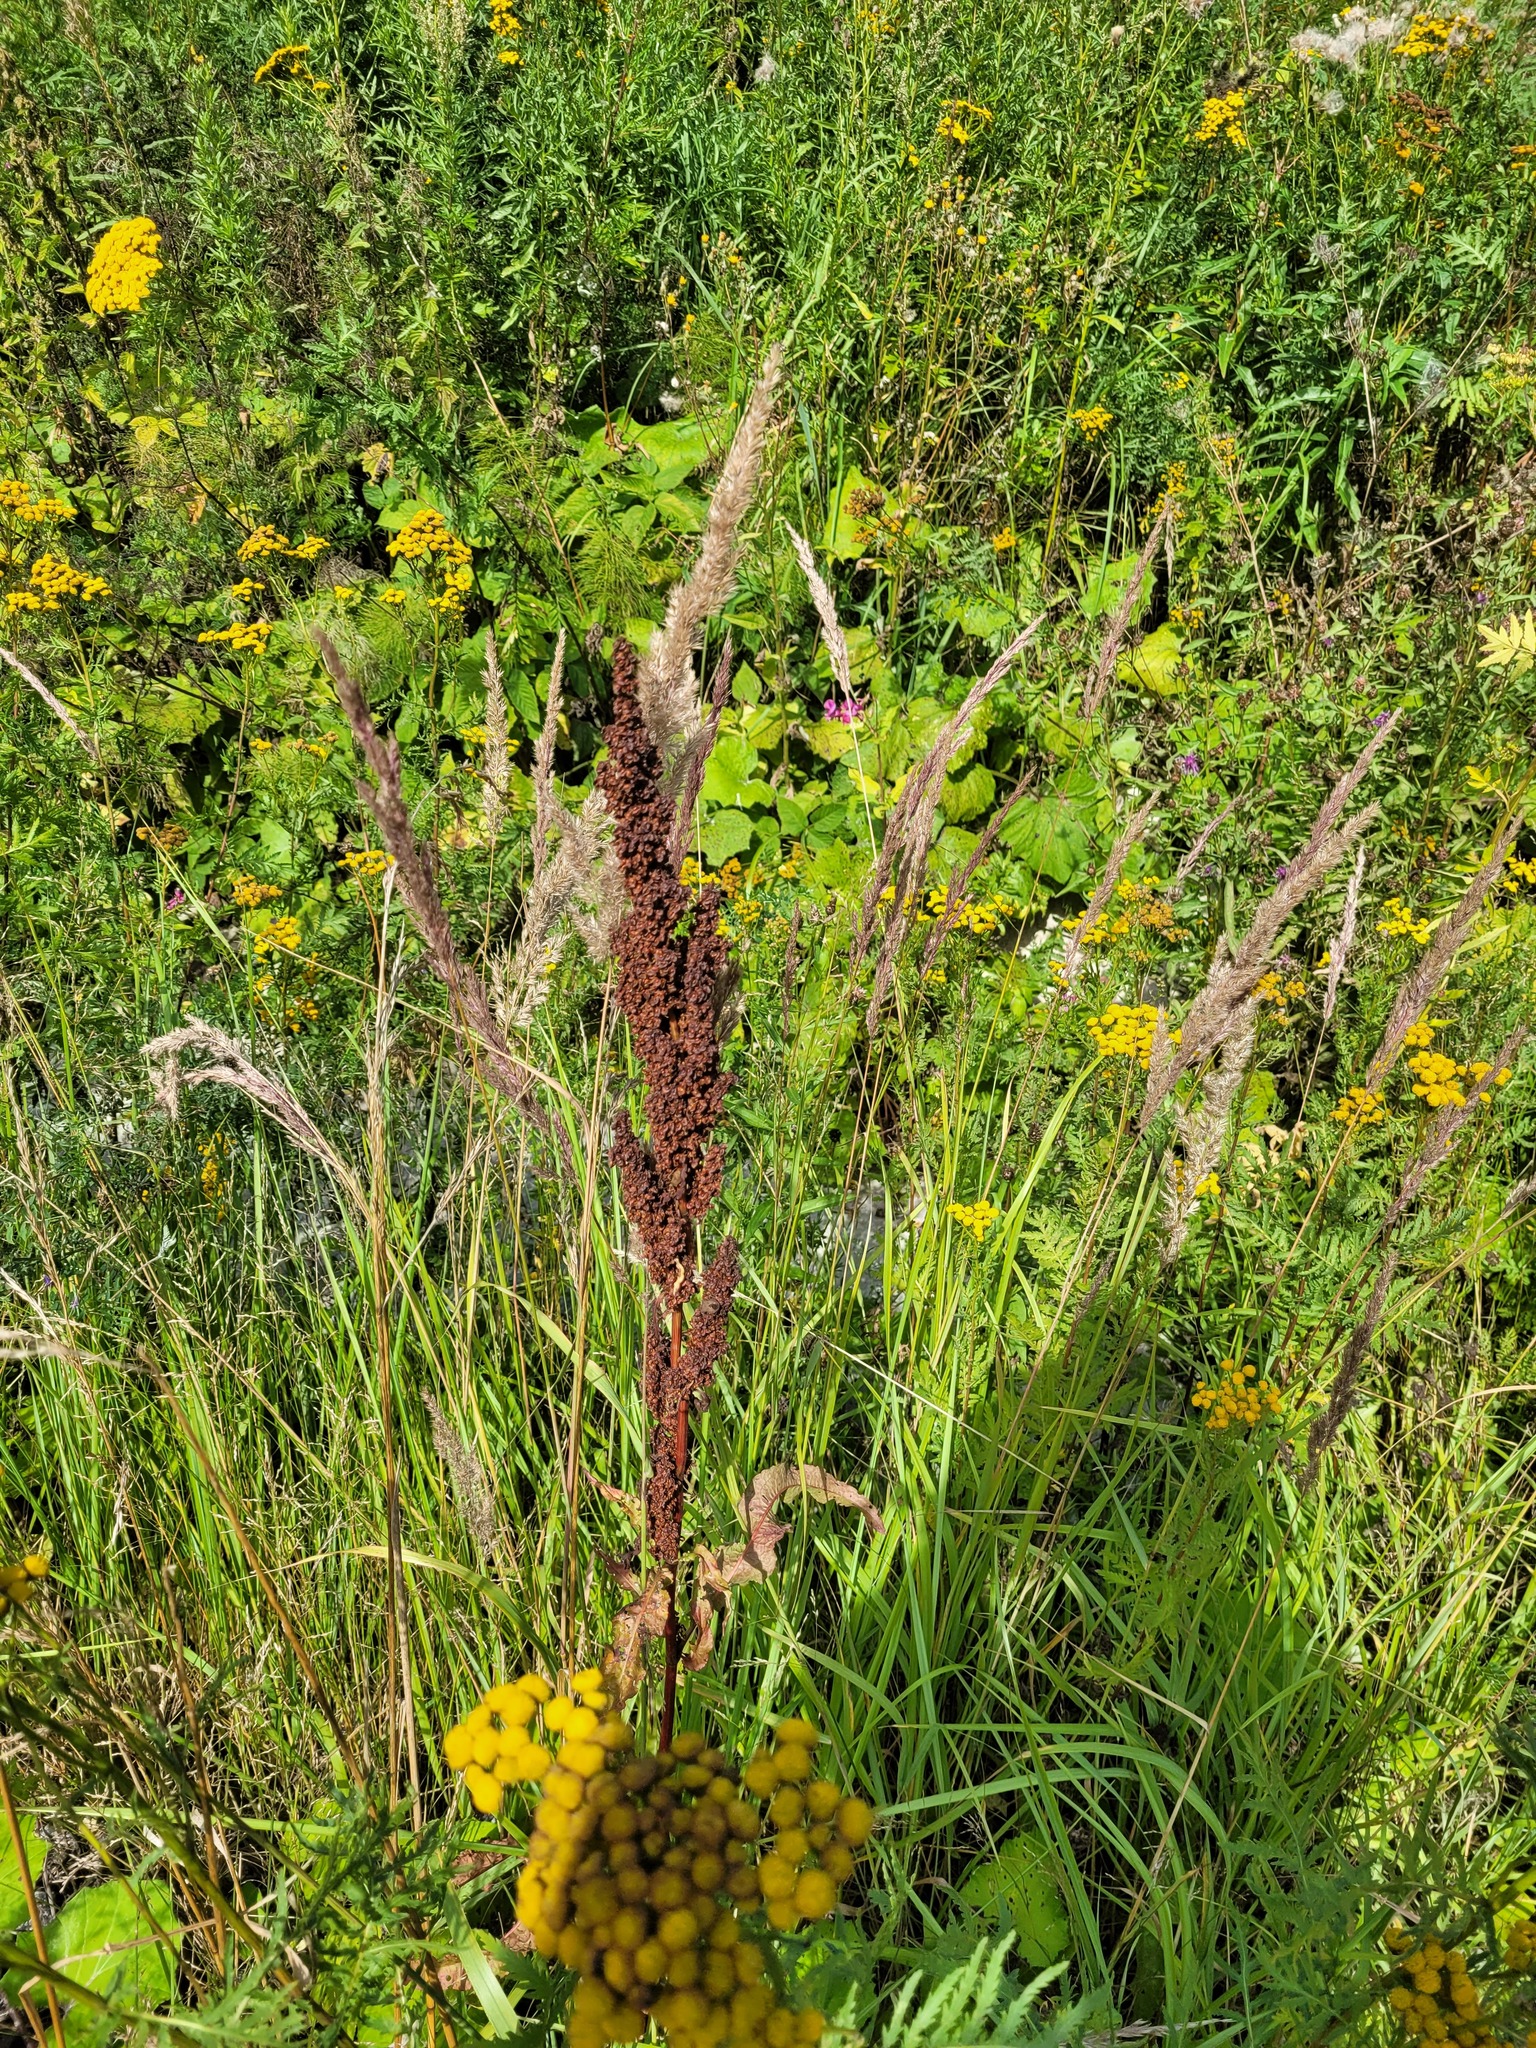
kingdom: Plantae
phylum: Tracheophyta
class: Magnoliopsida
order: Caryophyllales
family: Polygonaceae
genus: Rumex
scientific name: Rumex crispus
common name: Curled dock
